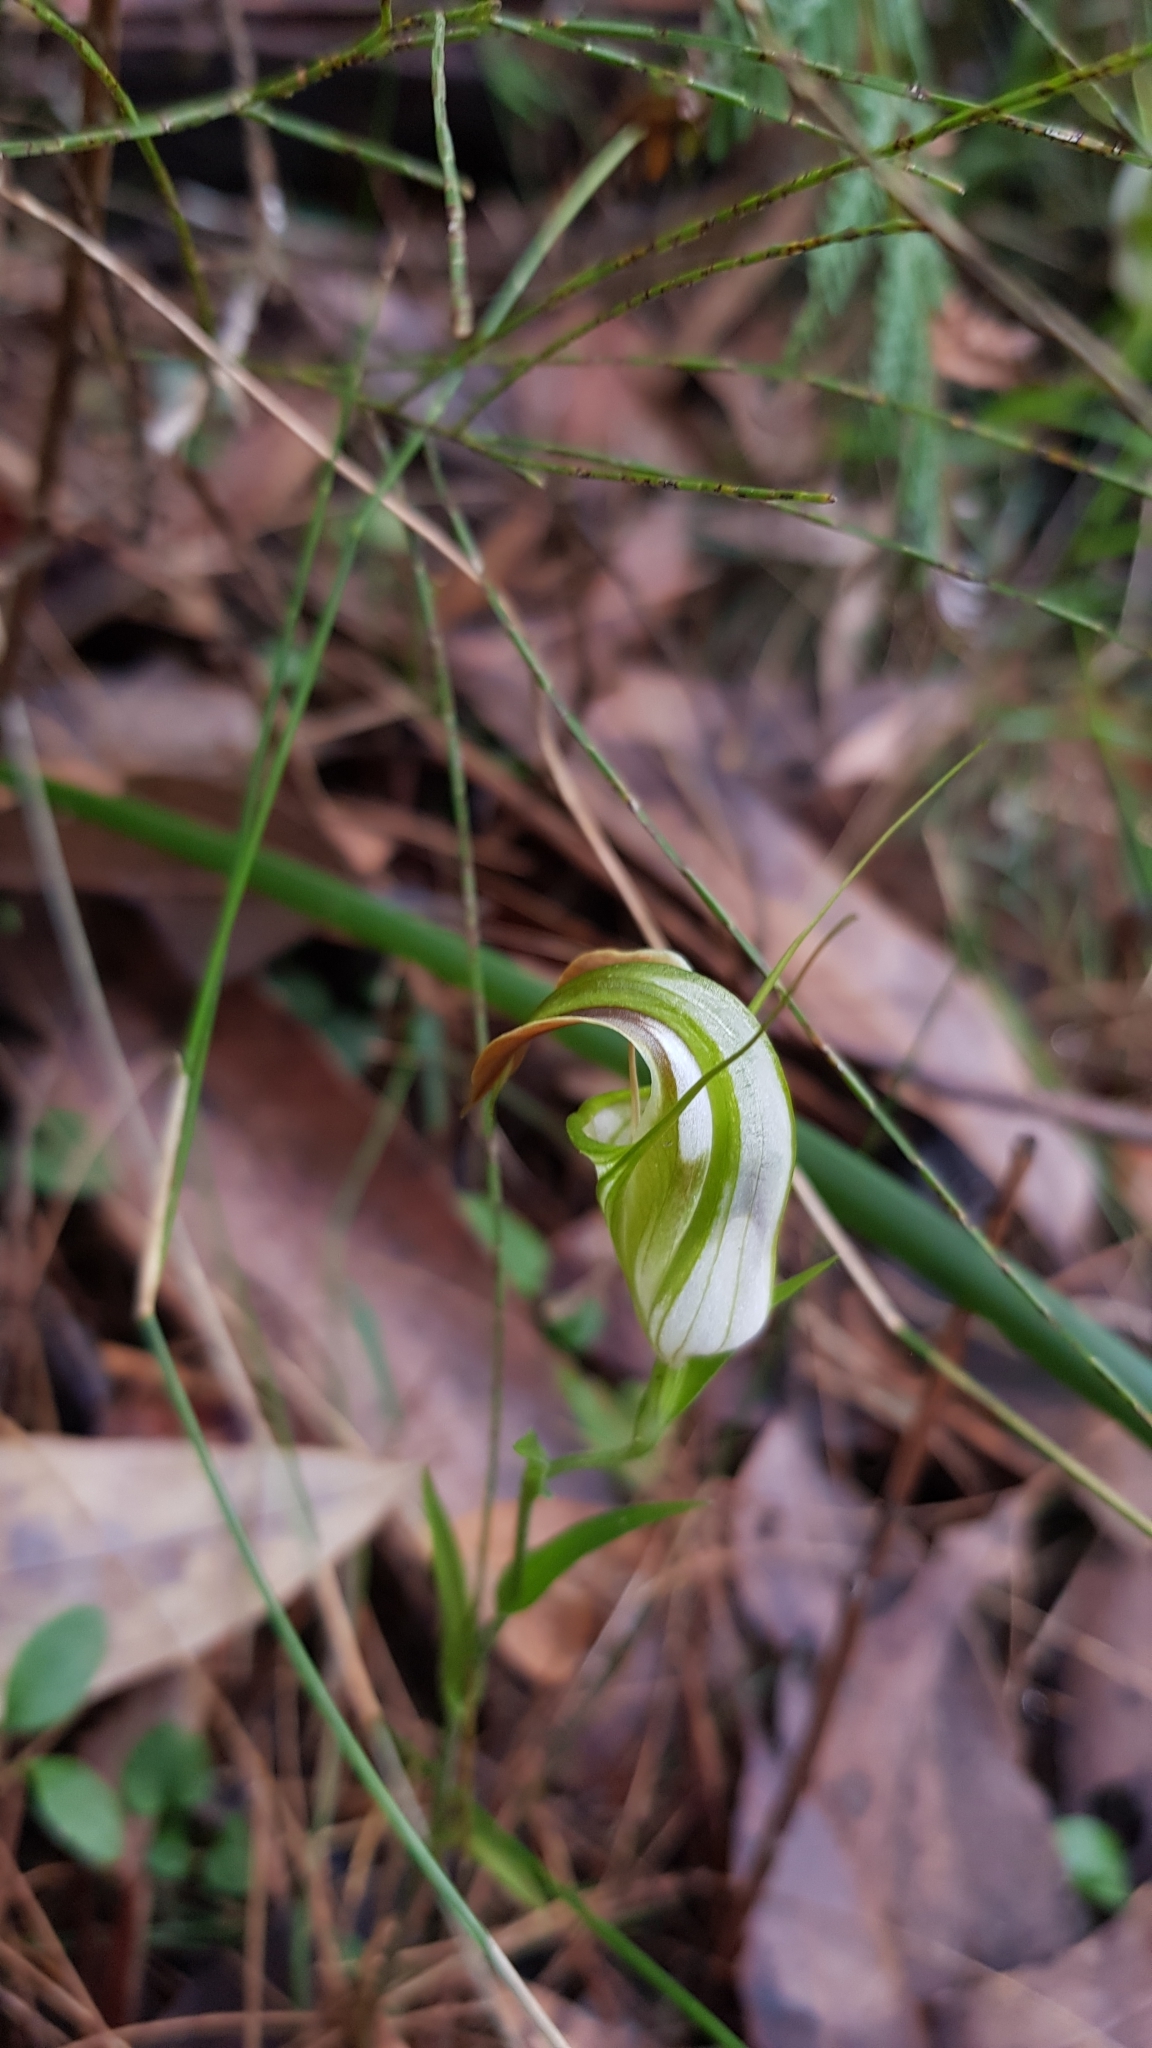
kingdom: Plantae
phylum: Tracheophyta
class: Liliopsida
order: Asparagales
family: Orchidaceae
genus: Pterostylis
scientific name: Pterostylis grandiflora
